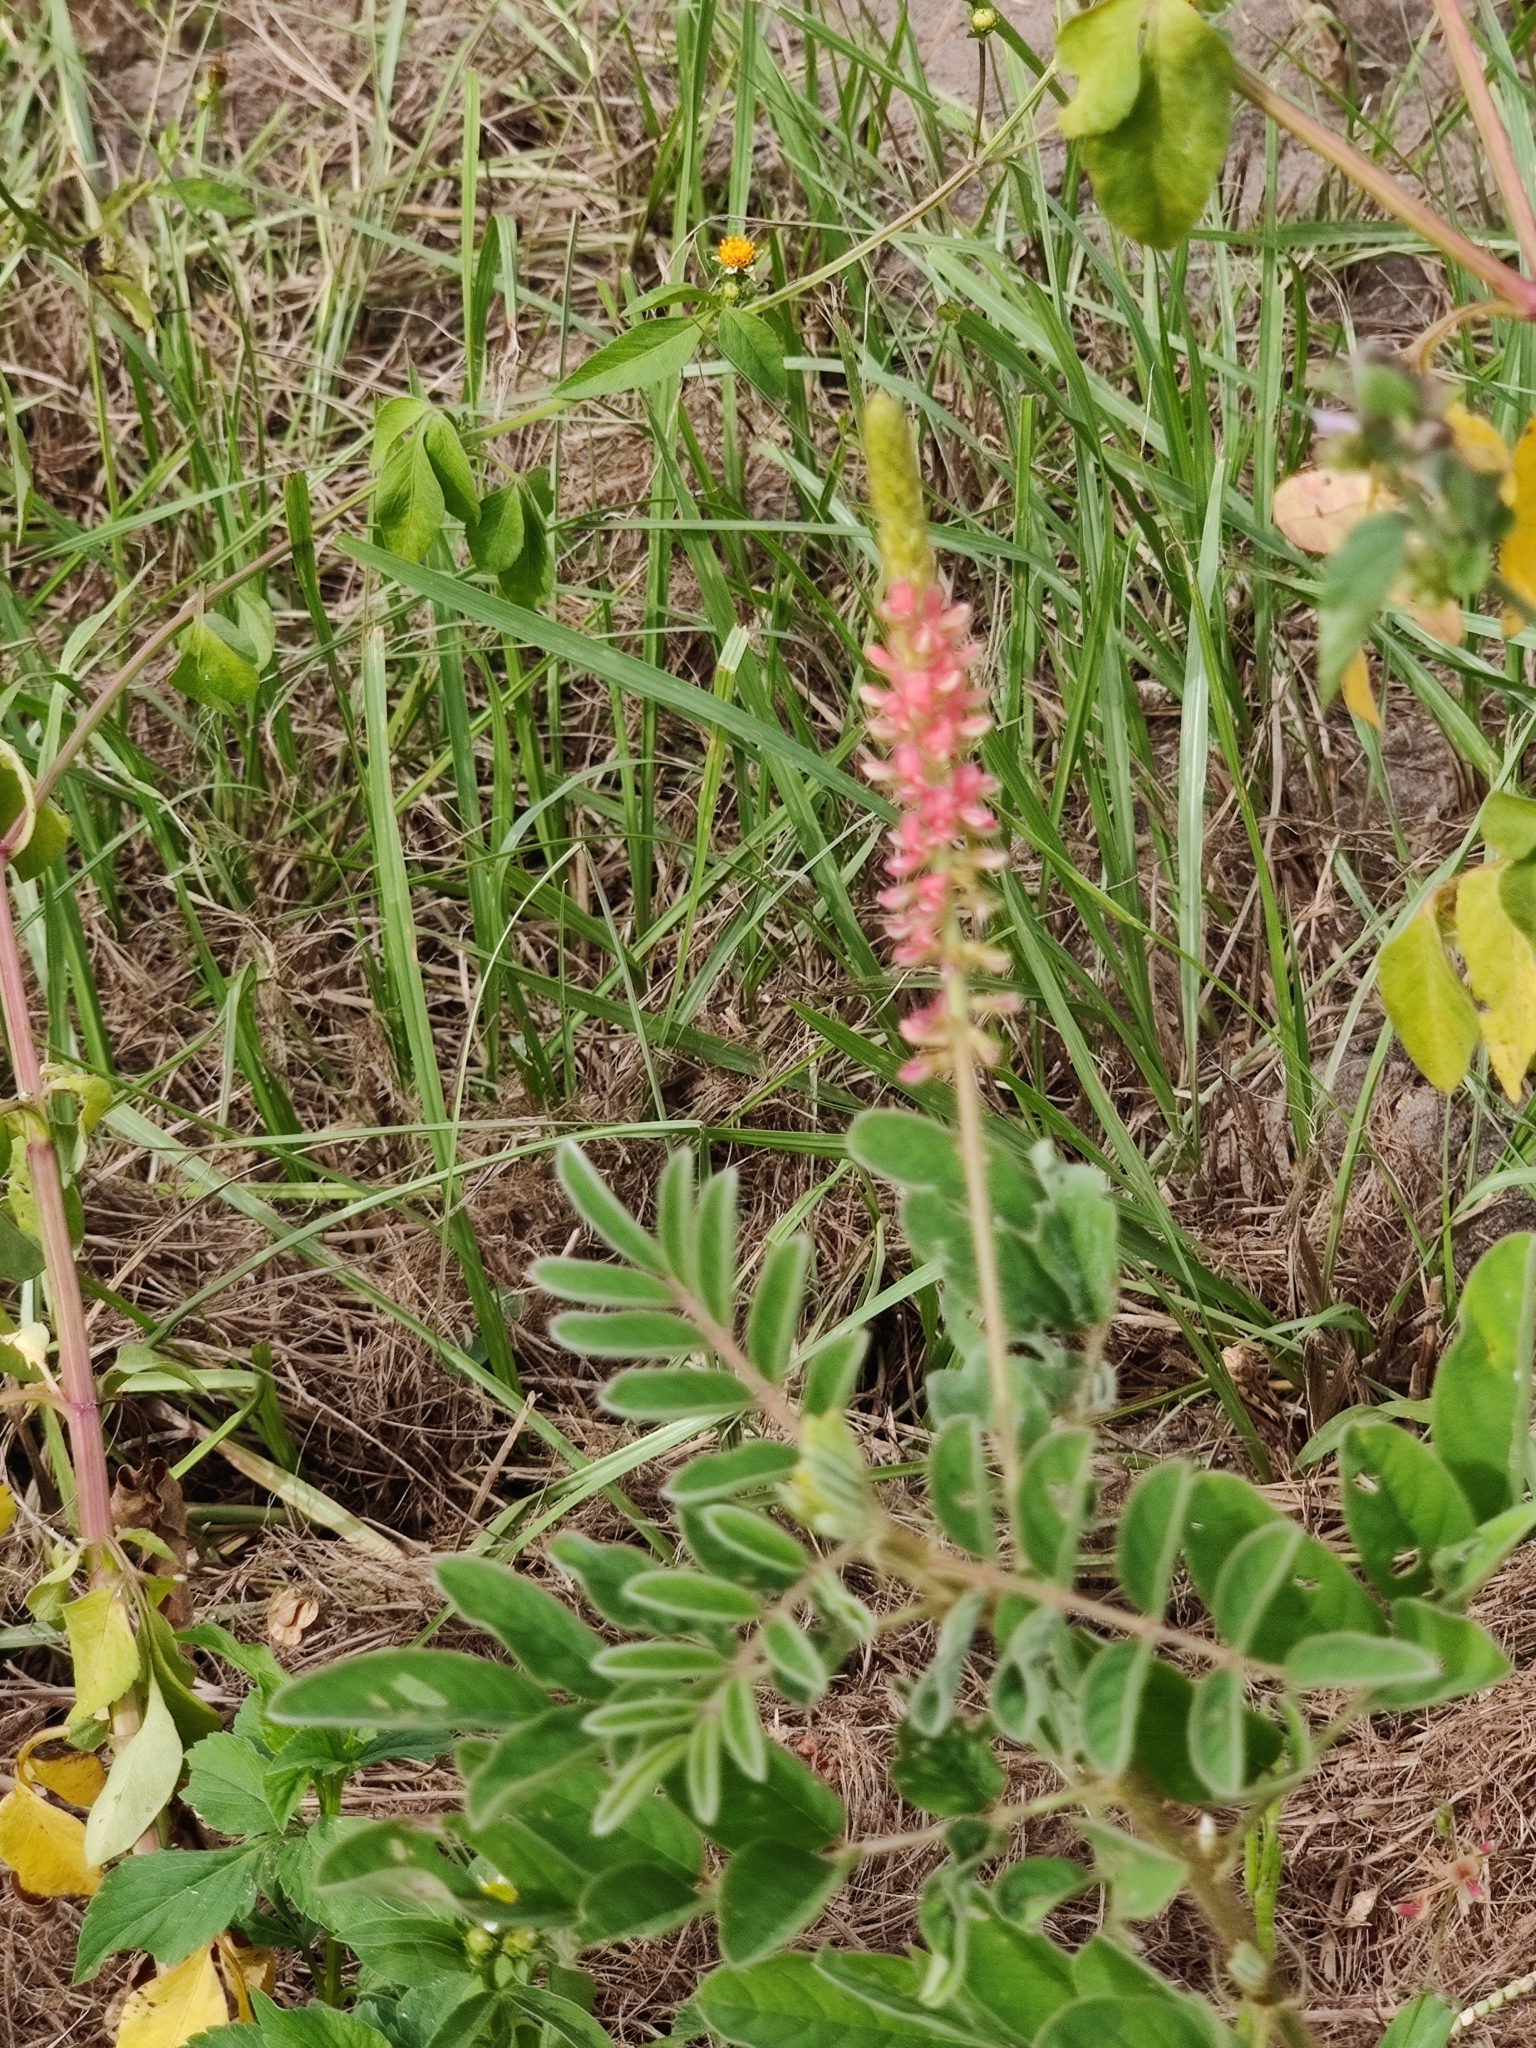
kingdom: Plantae
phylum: Tracheophyta
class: Magnoliopsida
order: Fabales
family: Fabaceae
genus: Indigofera
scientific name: Indigofera hirsuta
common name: Hairy indigo
